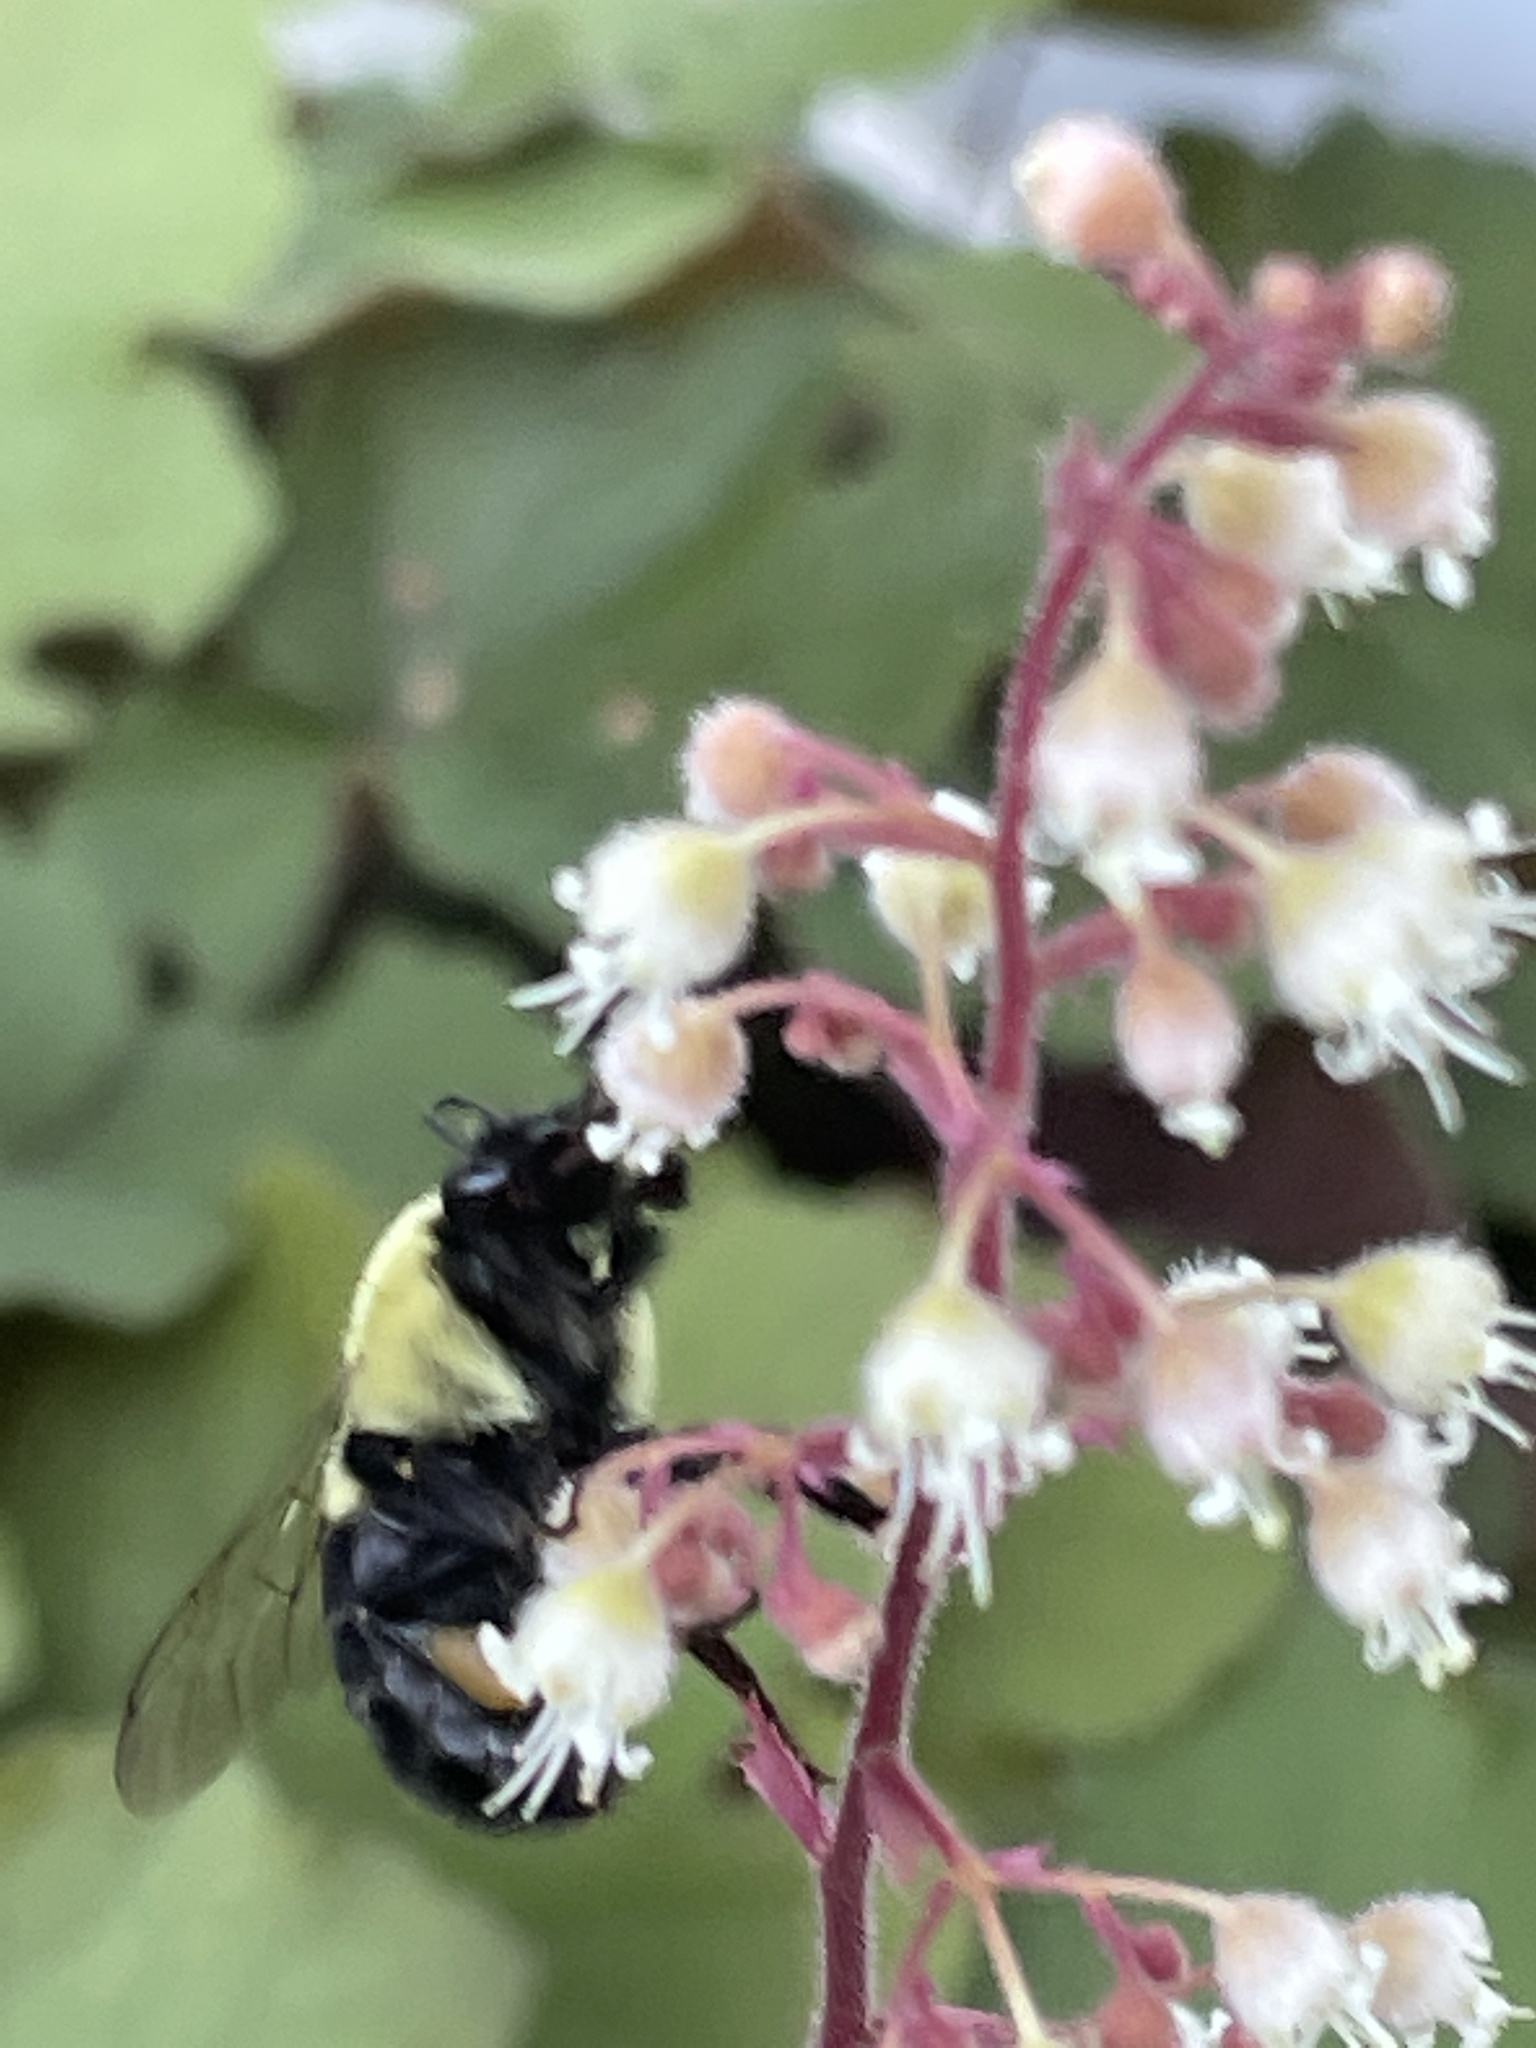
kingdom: Animalia
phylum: Arthropoda
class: Insecta
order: Hymenoptera
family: Apidae
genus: Bombus
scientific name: Bombus impatiens
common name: Common eastern bumble bee
